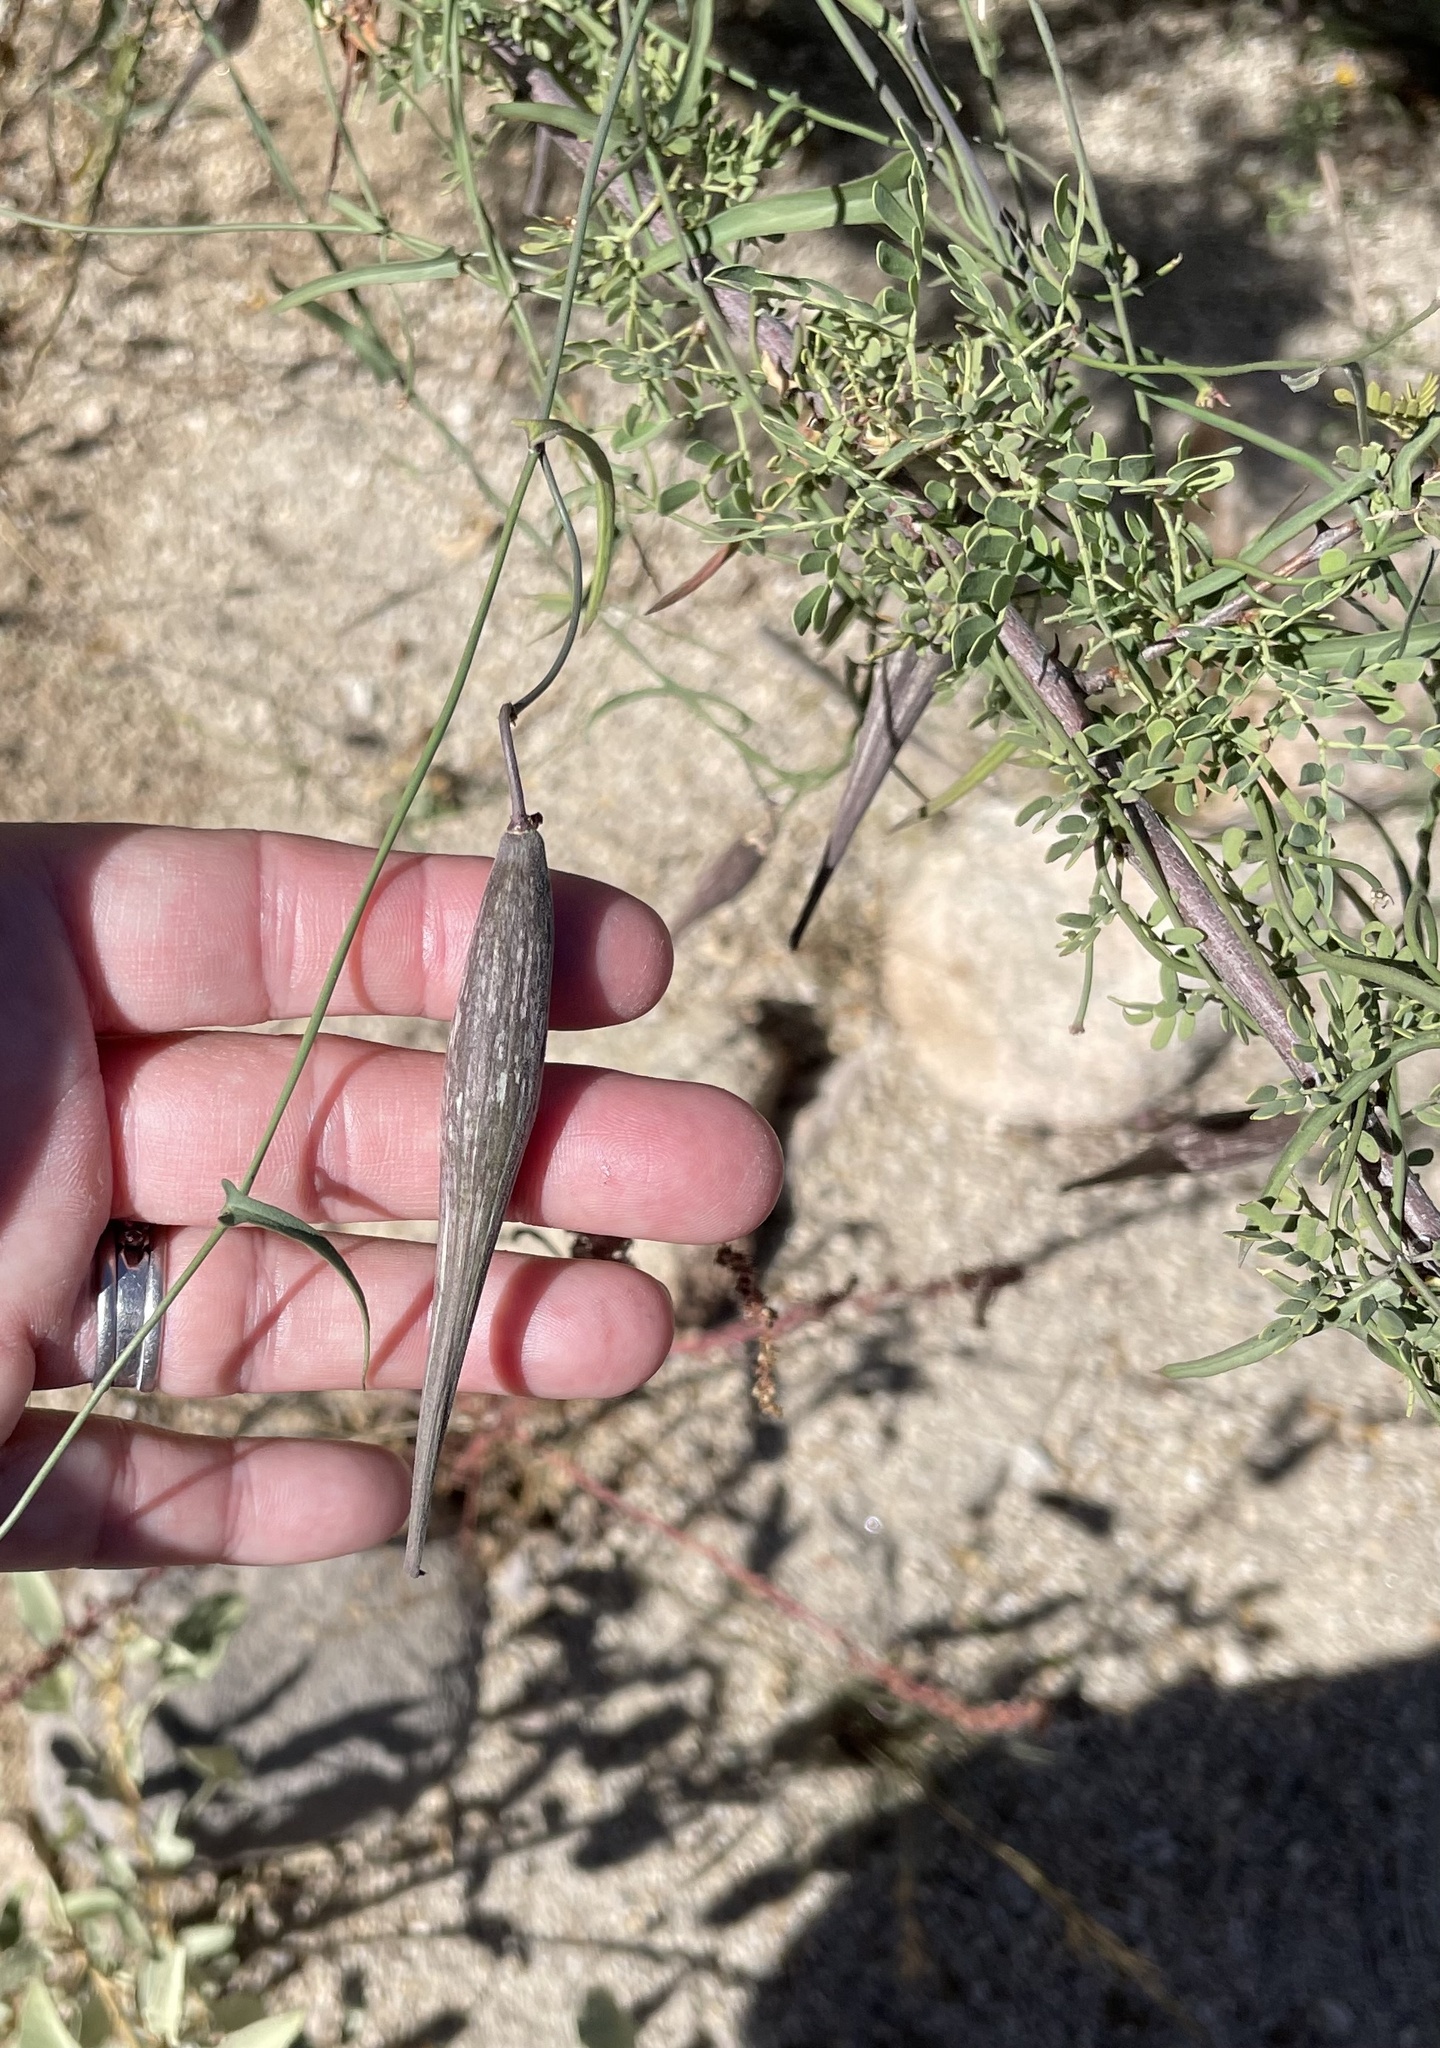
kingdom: Plantae
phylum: Tracheophyta
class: Magnoliopsida
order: Gentianales
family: Apocynaceae
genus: Funastrum
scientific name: Funastrum heterophyllum
